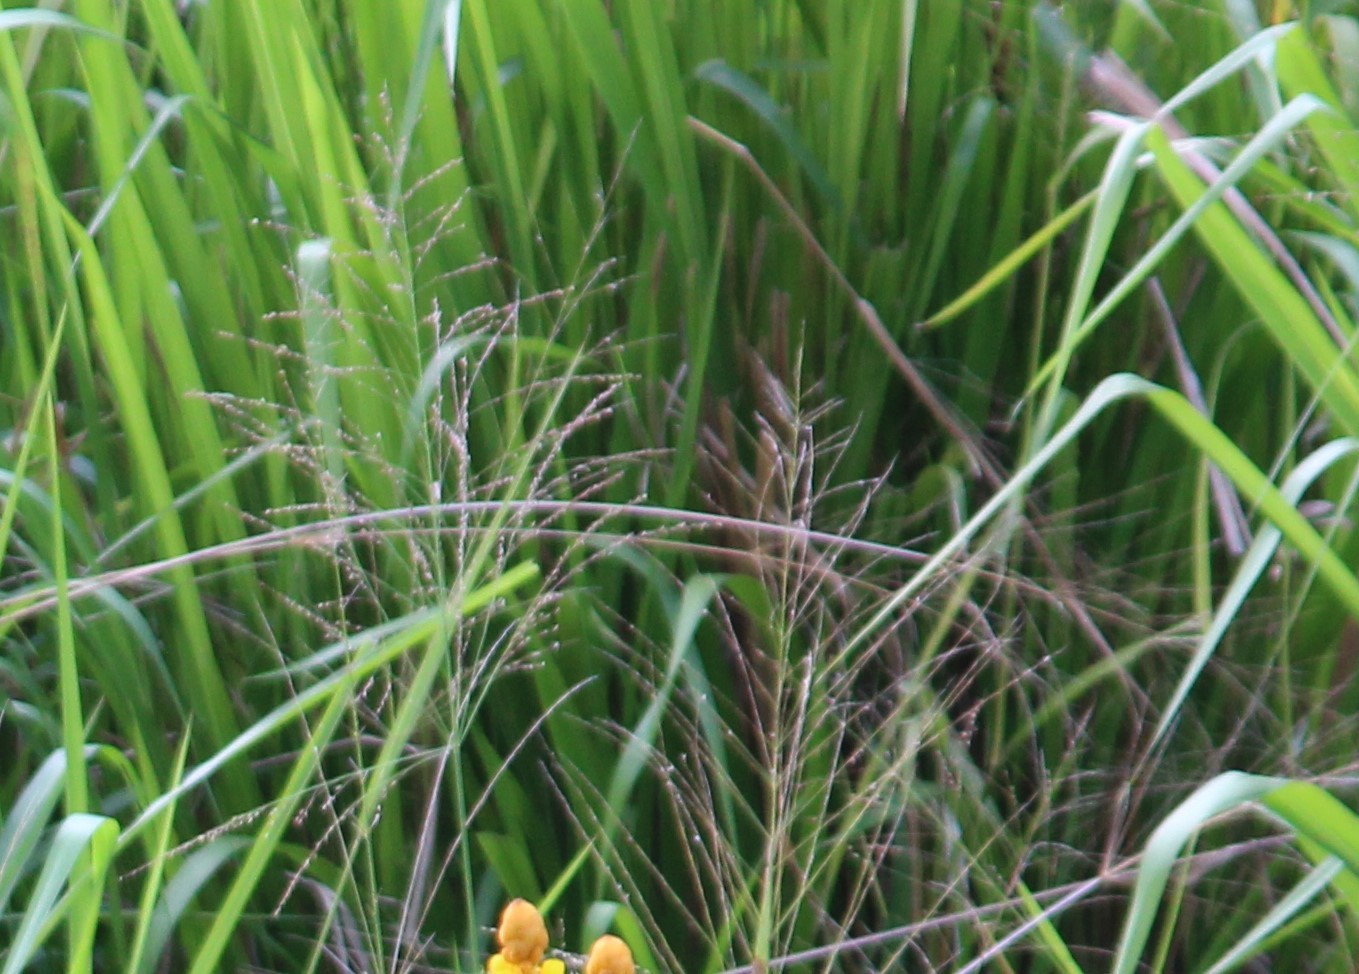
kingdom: Plantae
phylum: Tracheophyta
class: Liliopsida
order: Poales
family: Poaceae
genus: Megathyrsus
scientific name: Megathyrsus maximus
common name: Guineagrass
